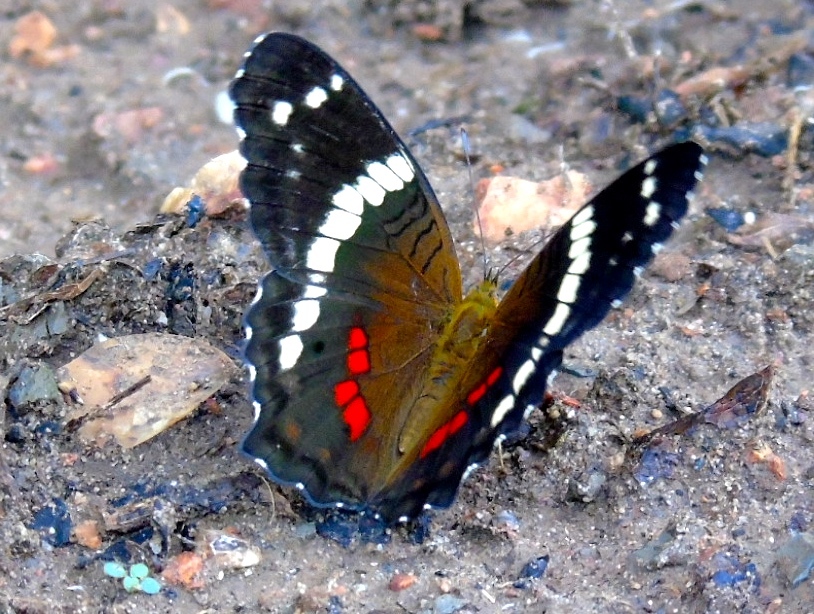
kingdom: Animalia
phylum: Arthropoda
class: Insecta
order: Lepidoptera
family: Nymphalidae
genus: Anartia
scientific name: Anartia fatima
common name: Banded peacock
